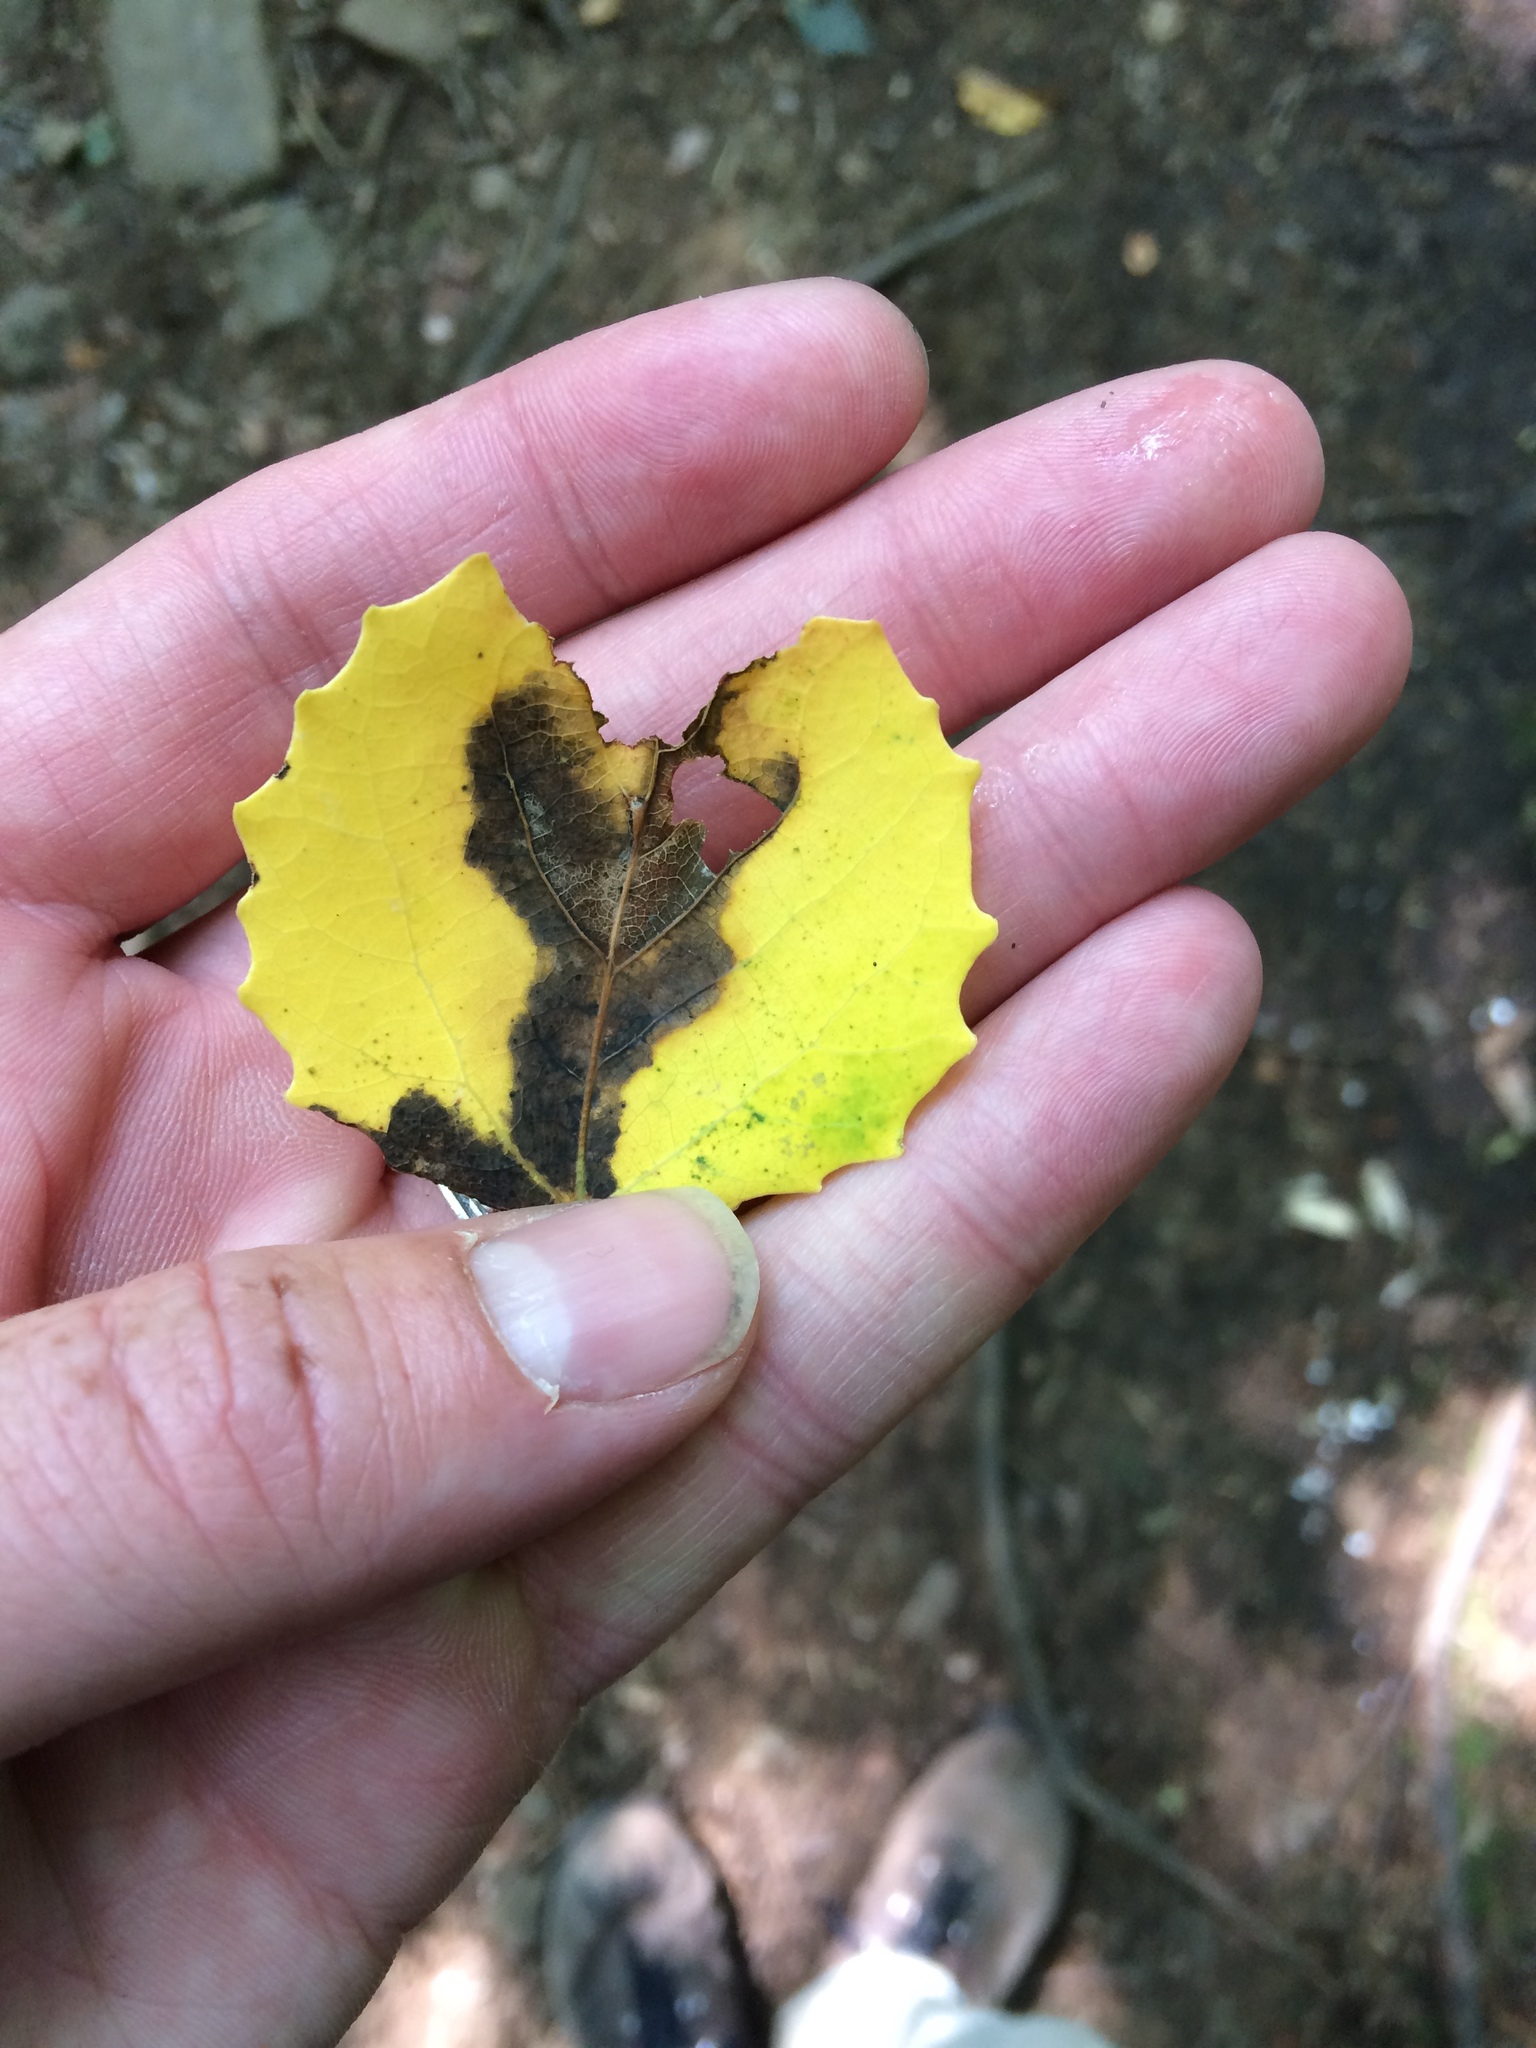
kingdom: Plantae
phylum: Tracheophyta
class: Magnoliopsida
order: Malpighiales
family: Salicaceae
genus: Populus
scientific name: Populus grandidentata
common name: Bigtooth aspen
